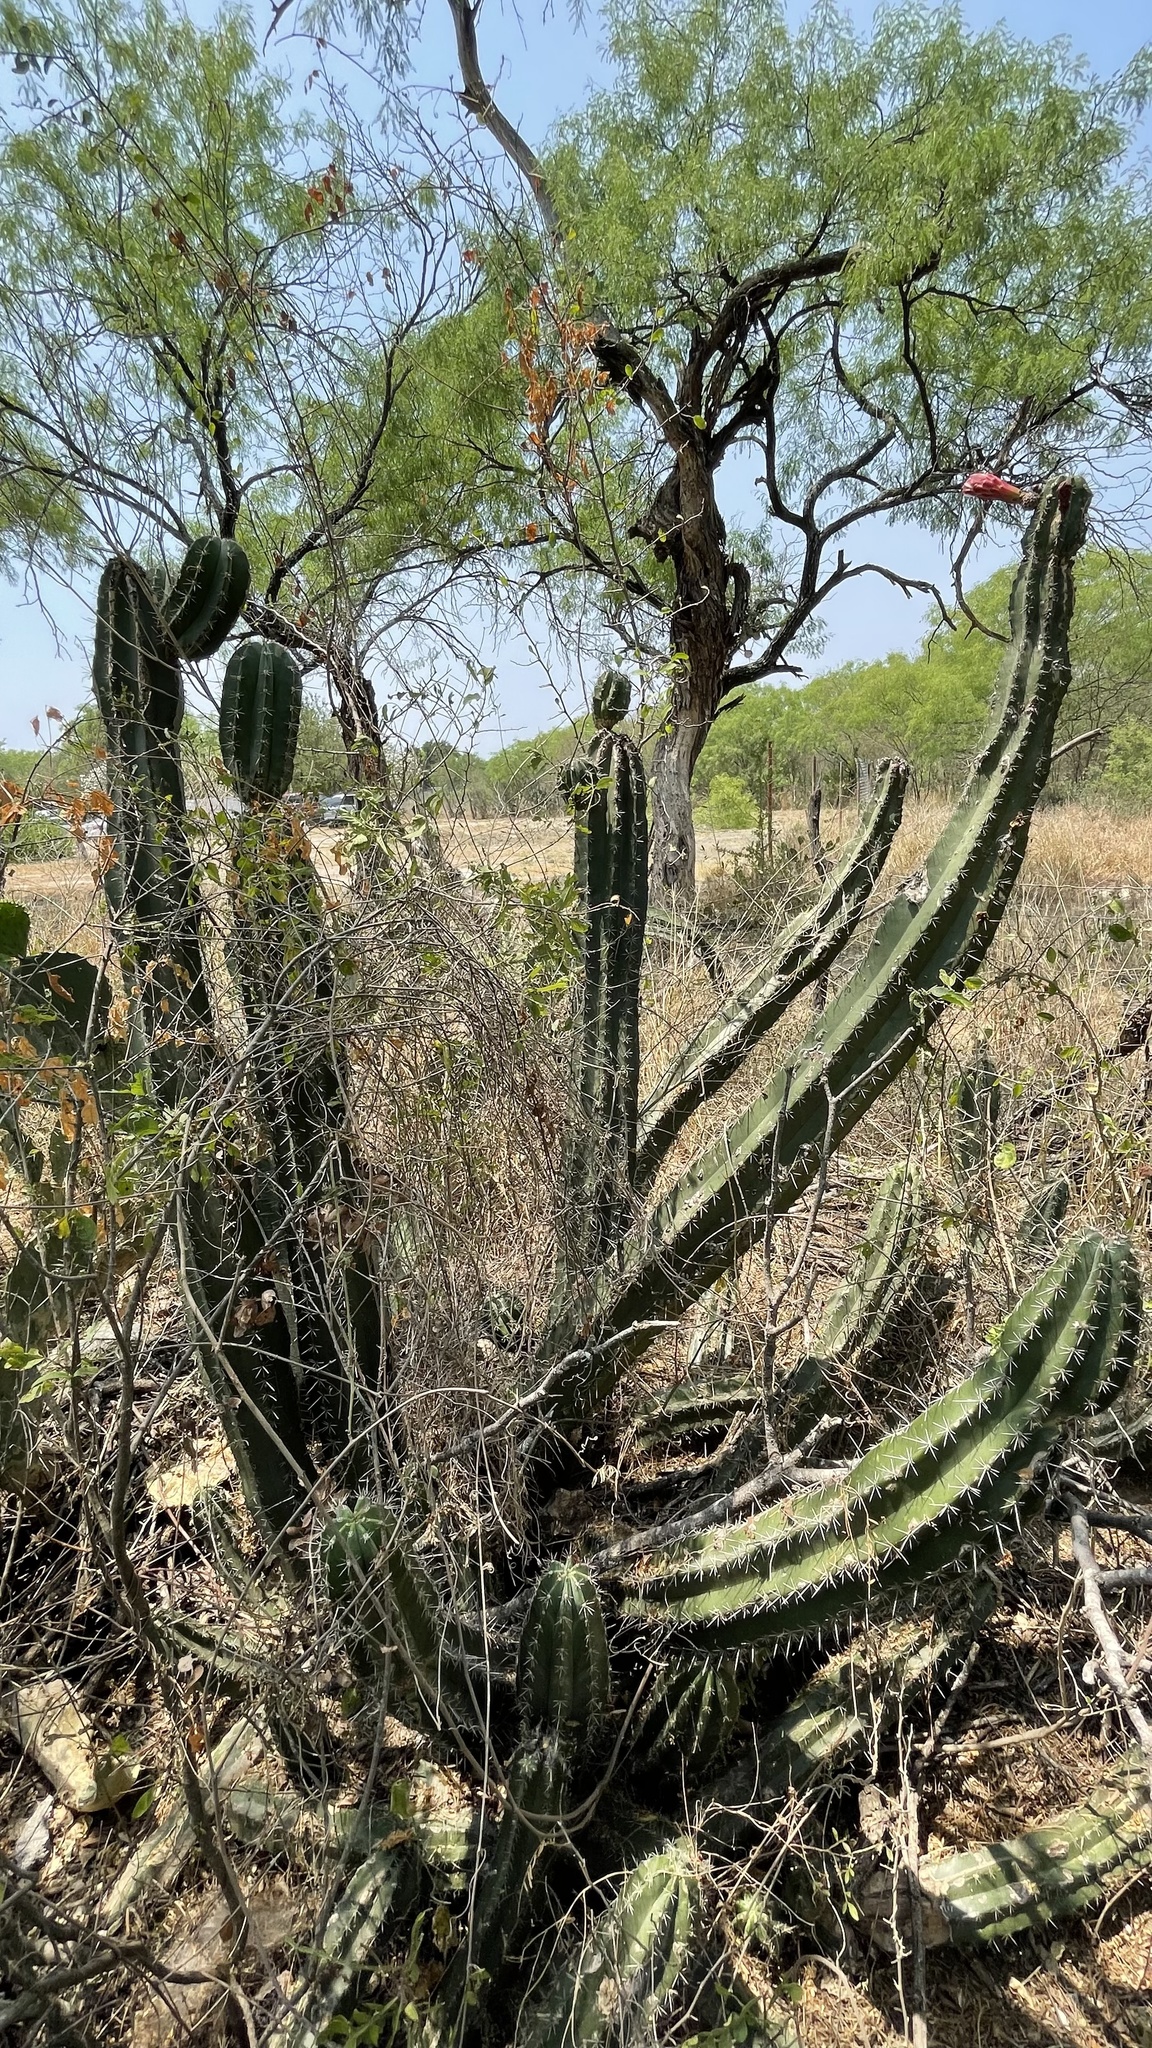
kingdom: Plantae
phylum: Tracheophyta
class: Magnoliopsida
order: Caryophyllales
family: Cactaceae
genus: Stenocereus
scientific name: Stenocereus huastecorum
